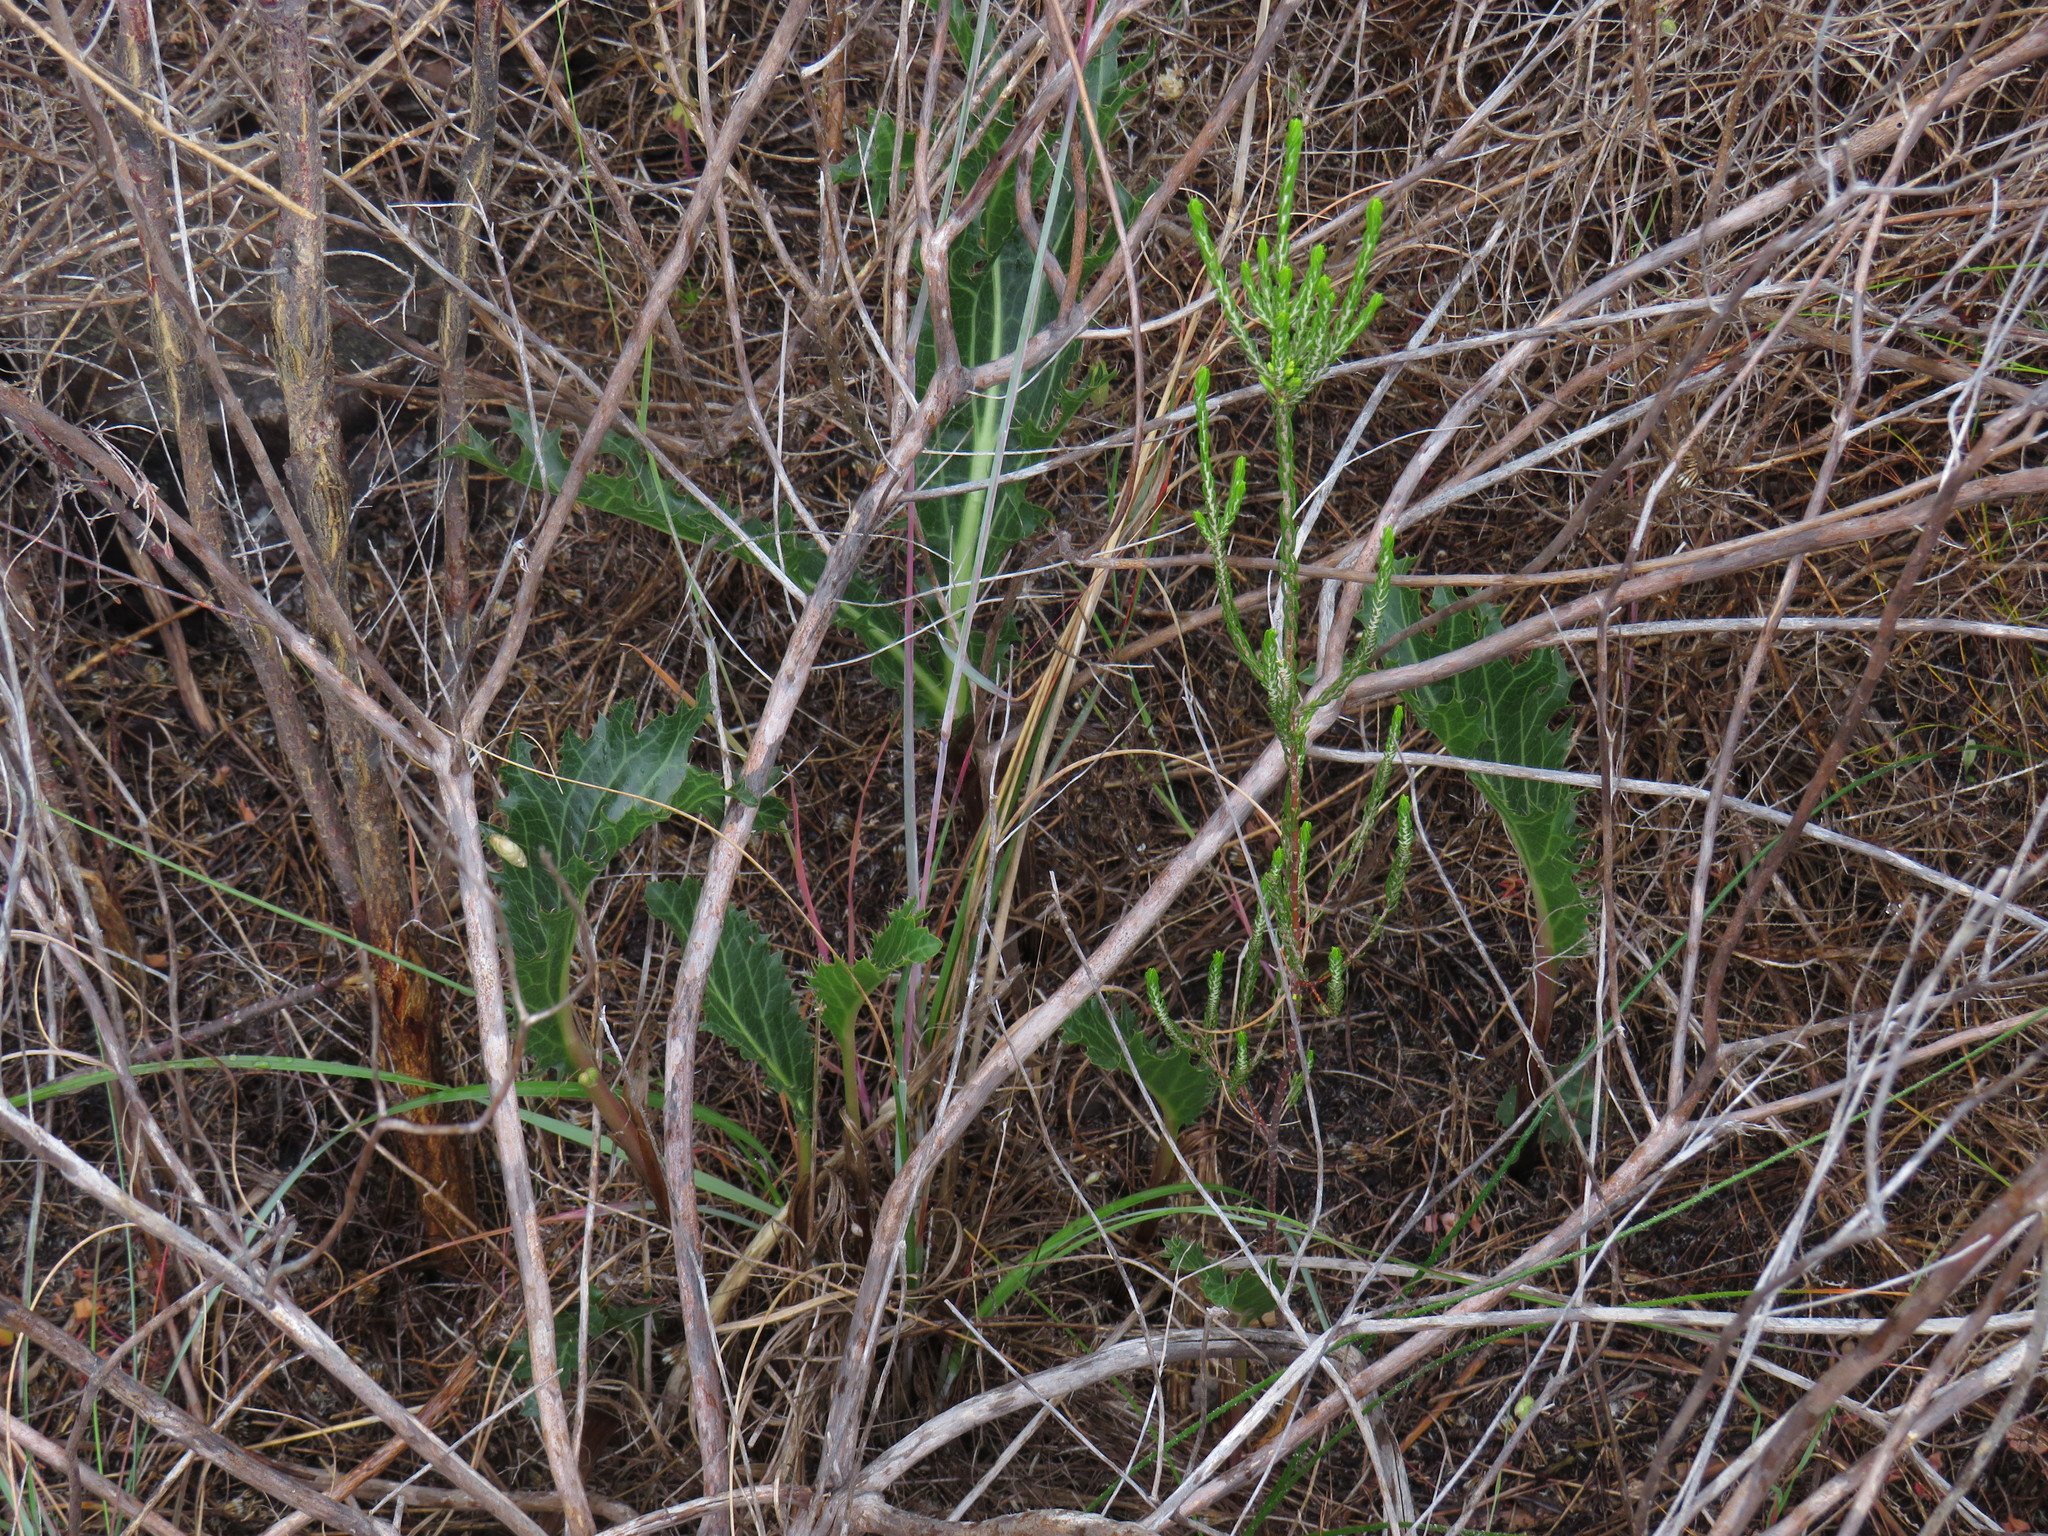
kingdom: Plantae
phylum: Tracheophyta
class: Magnoliopsida
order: Apiales
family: Apiaceae
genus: Lichtensteinia
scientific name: Lichtensteinia lacera
